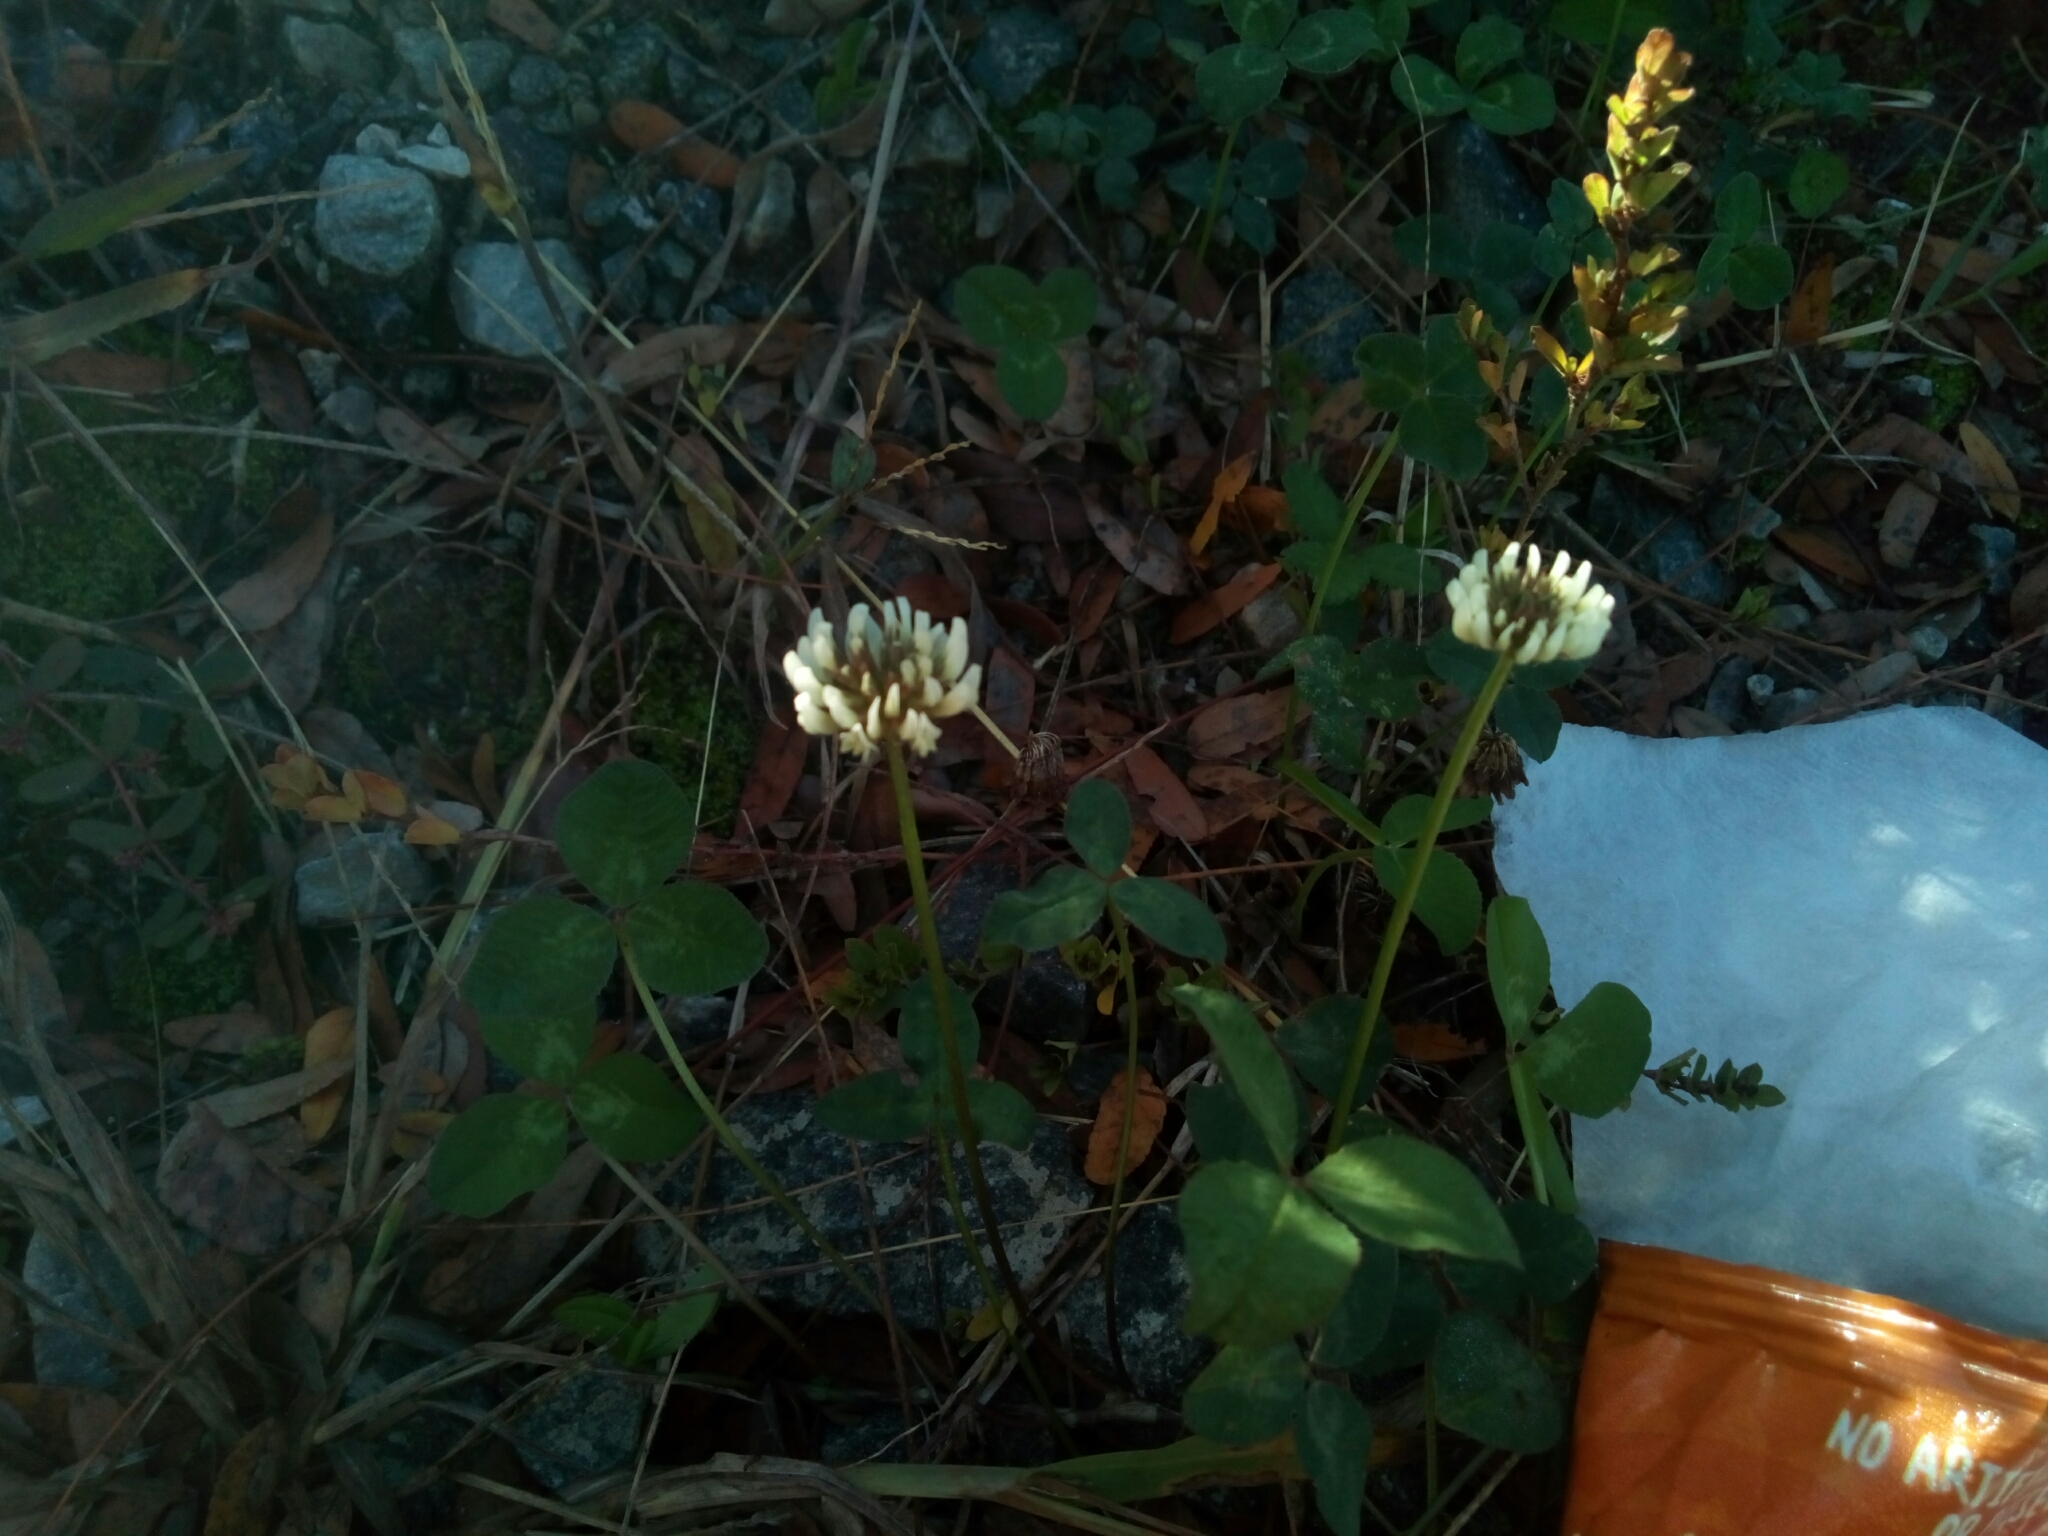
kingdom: Plantae
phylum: Tracheophyta
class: Magnoliopsida
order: Fabales
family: Fabaceae
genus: Trifolium
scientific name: Trifolium repens
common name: White clover
